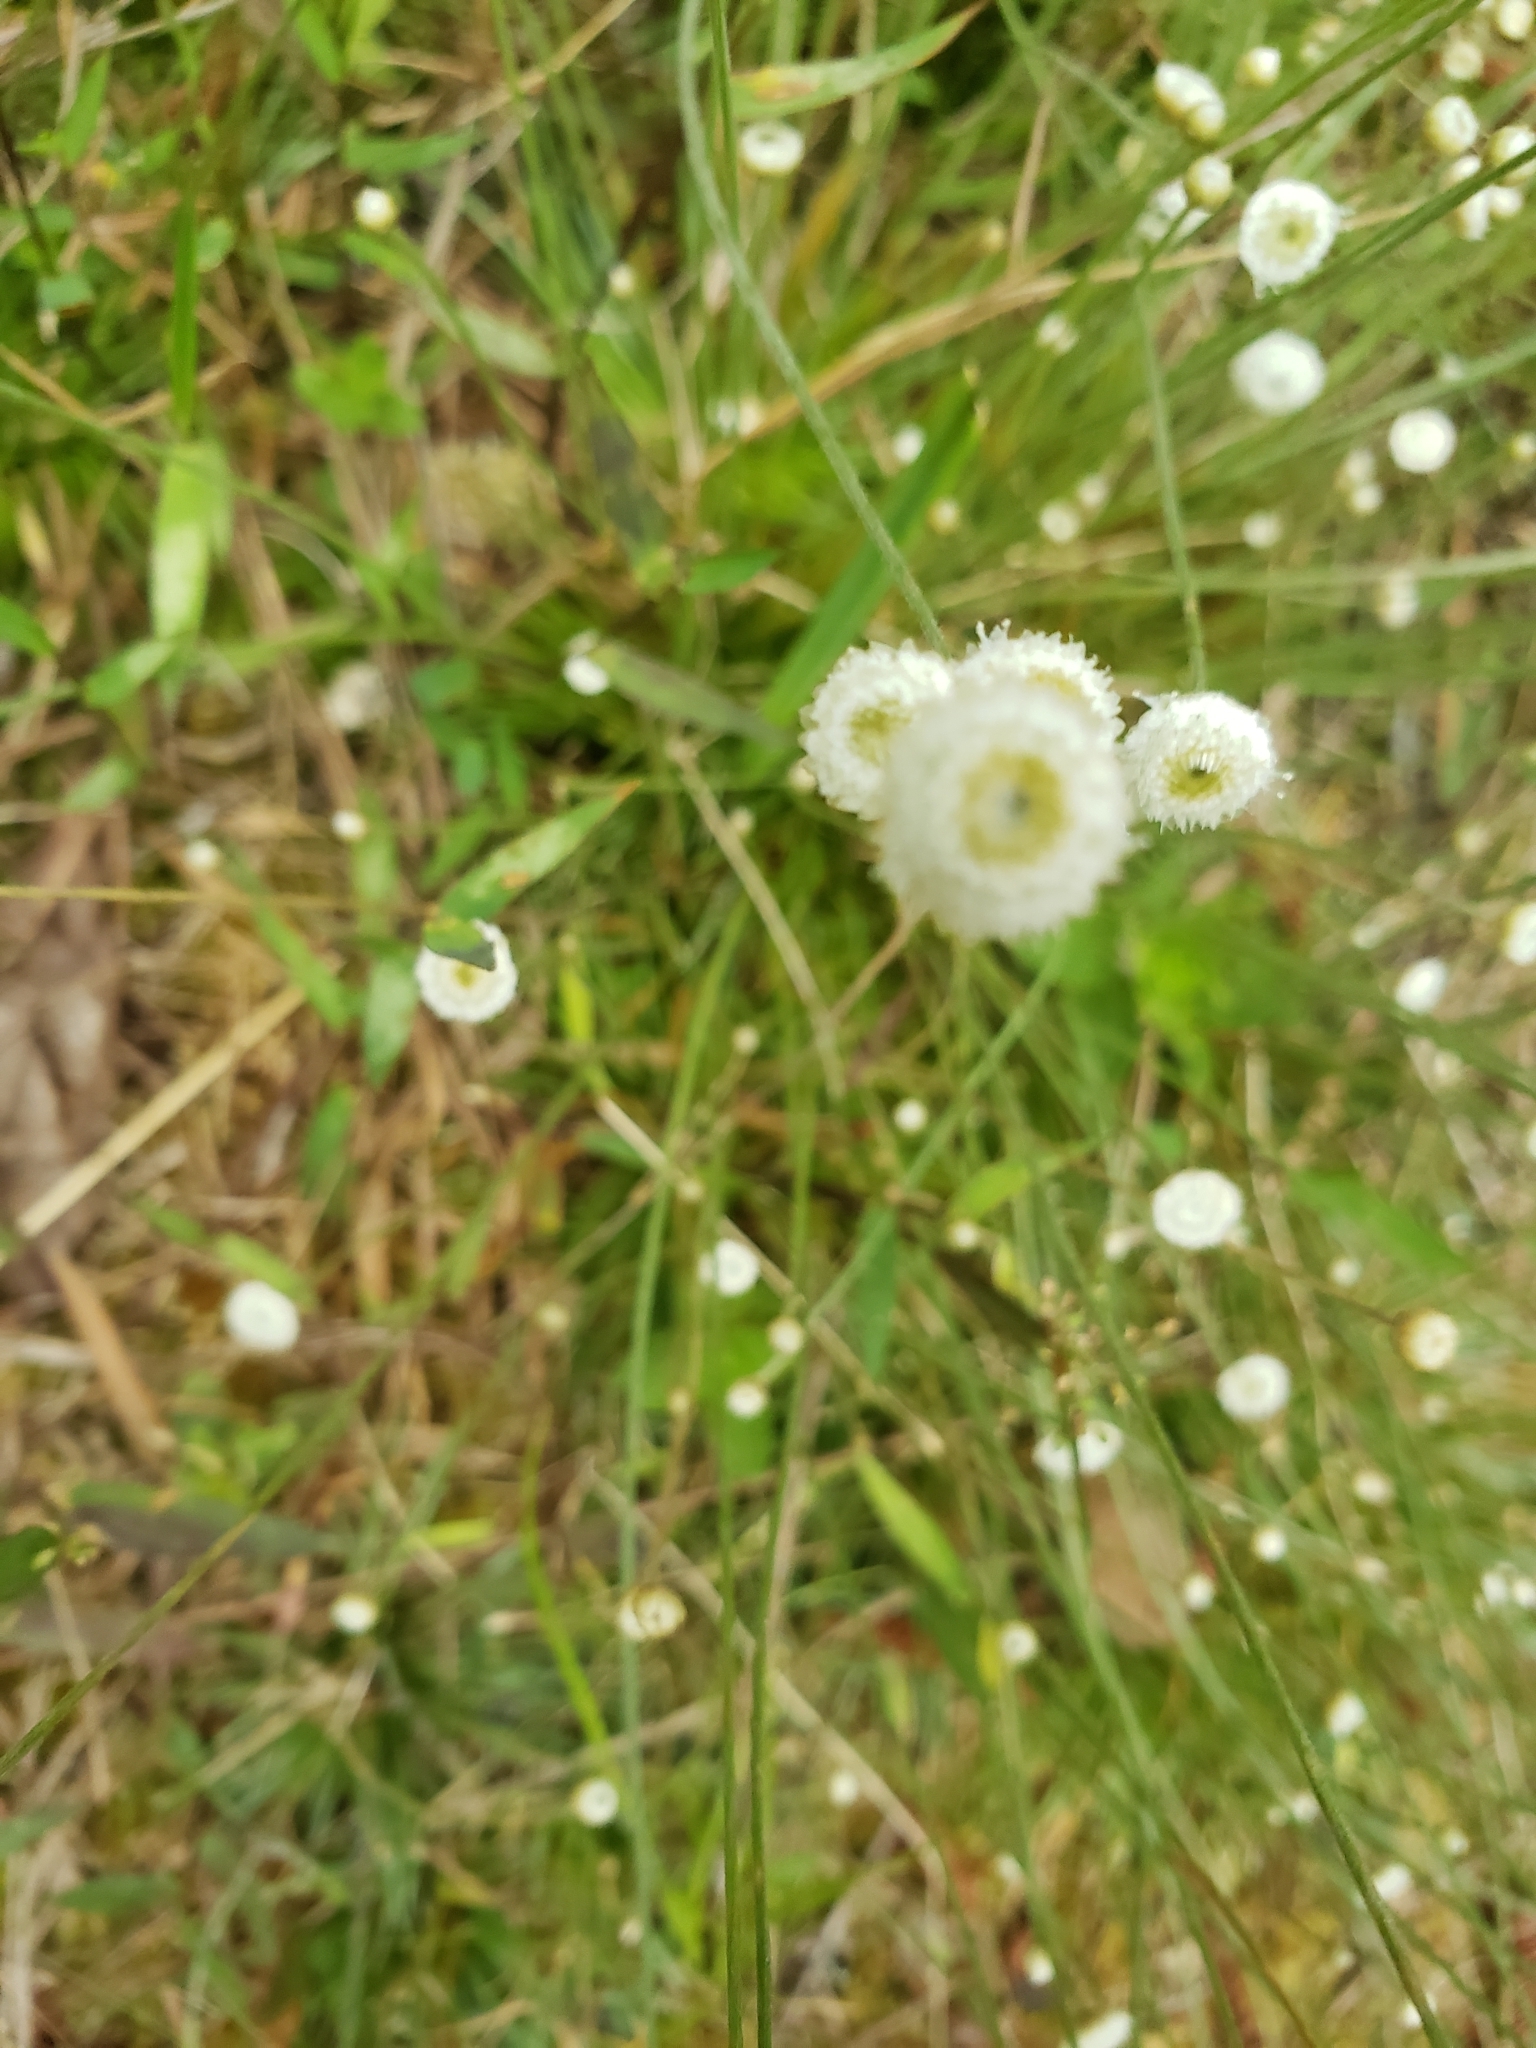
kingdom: Plantae
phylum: Tracheophyta
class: Liliopsida
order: Poales
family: Eriocaulaceae
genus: Syngonanthus
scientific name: Syngonanthus flavidulus
